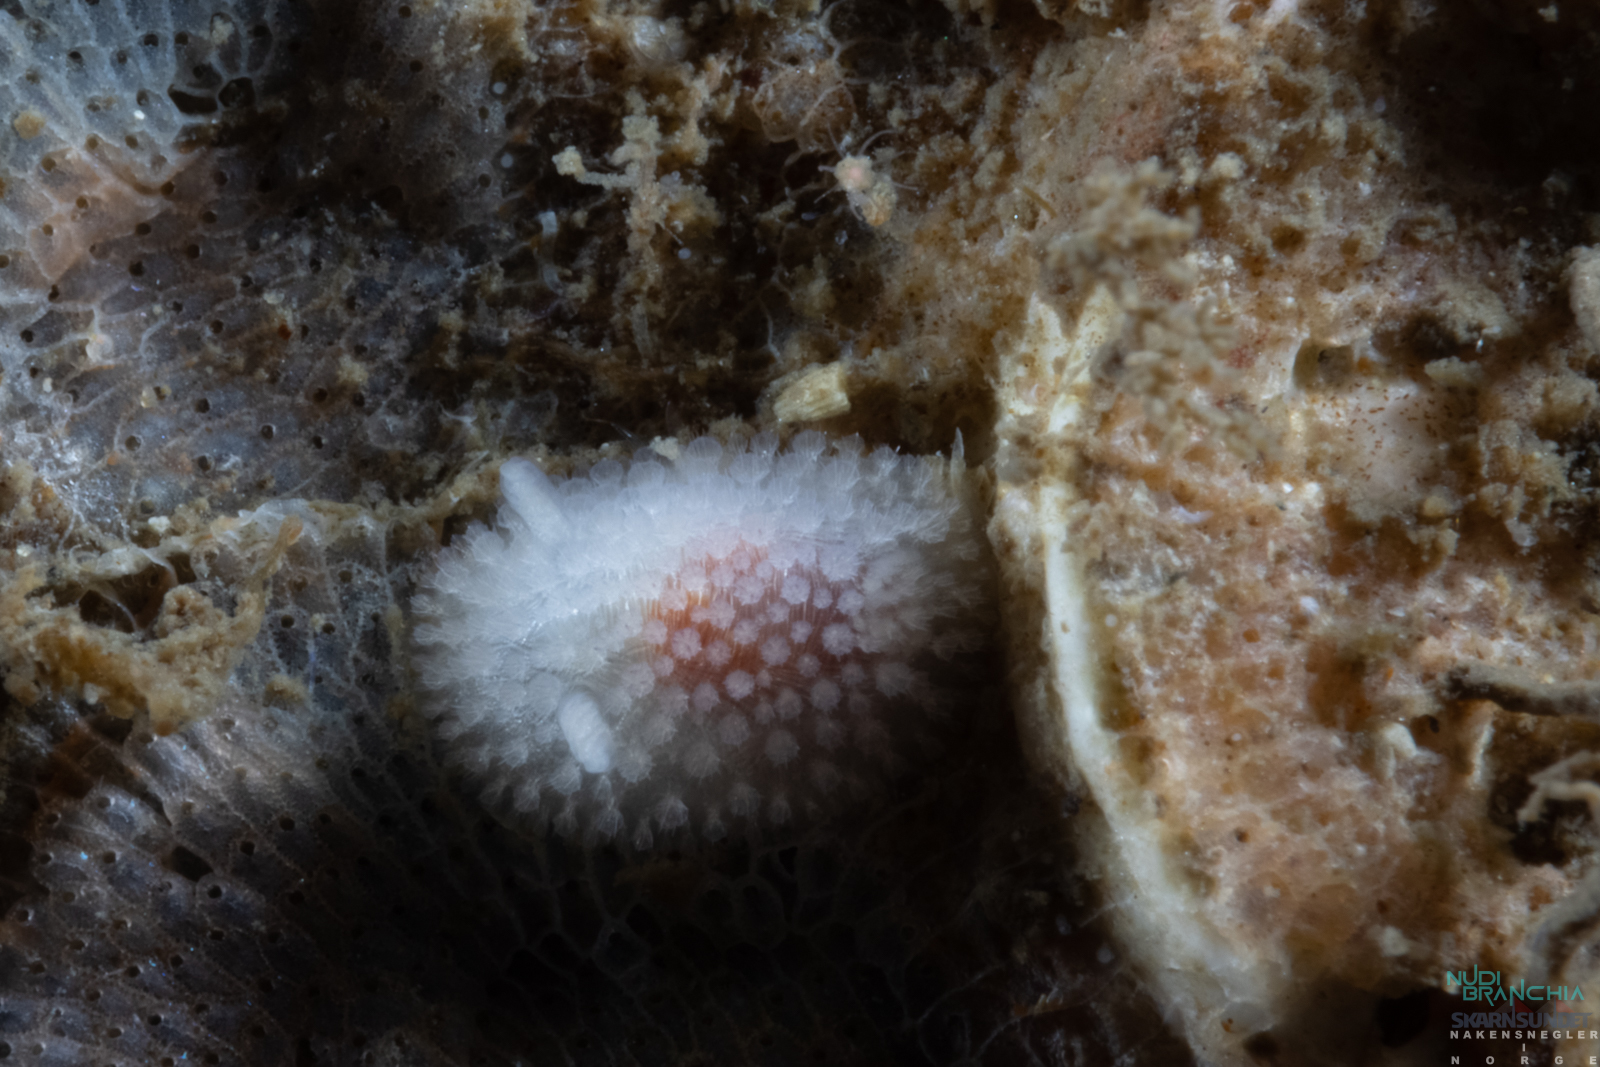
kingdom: Animalia
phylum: Mollusca
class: Gastropoda
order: Nudibranchia
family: Onchidorididae
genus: Onchidoris
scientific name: Onchidoris muricata
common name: Rough doris
